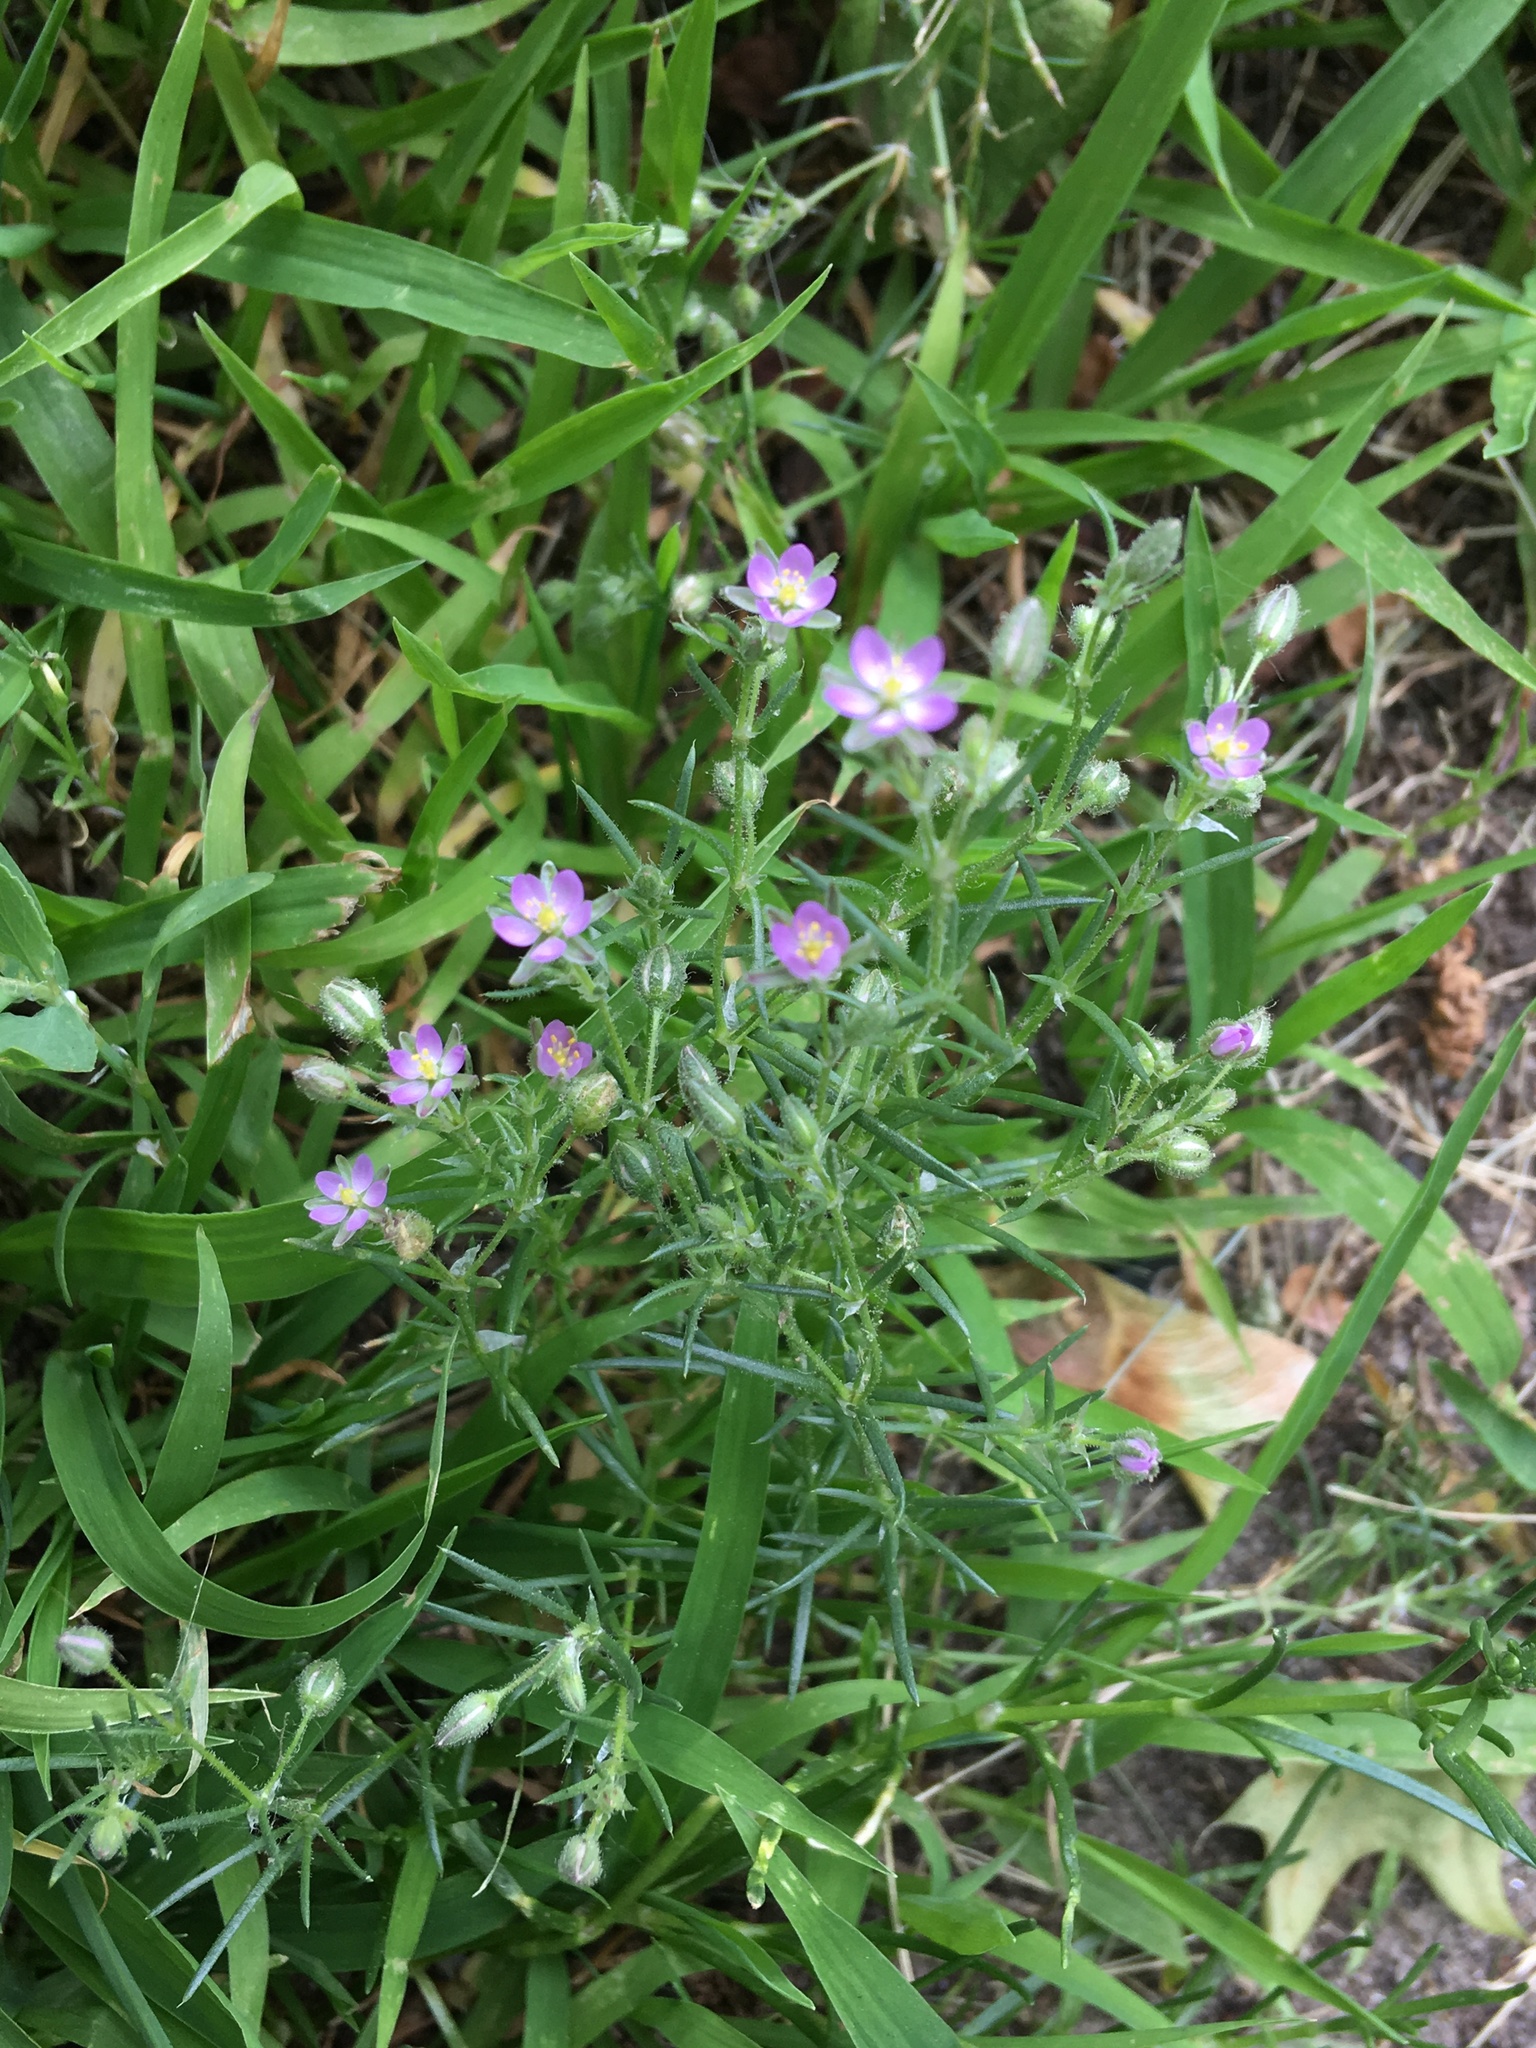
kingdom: Plantae
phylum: Tracheophyta
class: Magnoliopsida
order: Caryophyllales
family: Caryophyllaceae
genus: Spergularia
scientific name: Spergularia rubra
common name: Red sand-spurrey
